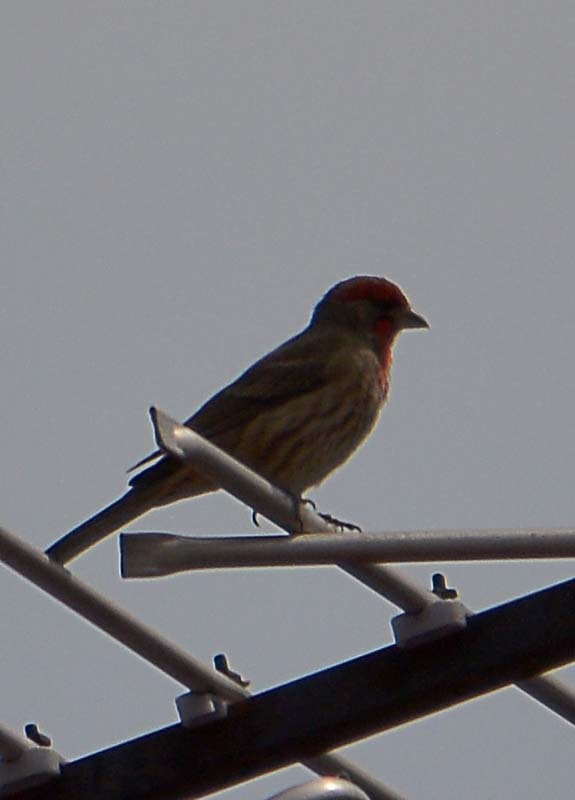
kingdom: Animalia
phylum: Chordata
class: Aves
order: Passeriformes
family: Fringillidae
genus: Haemorhous
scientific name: Haemorhous mexicanus
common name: House finch
